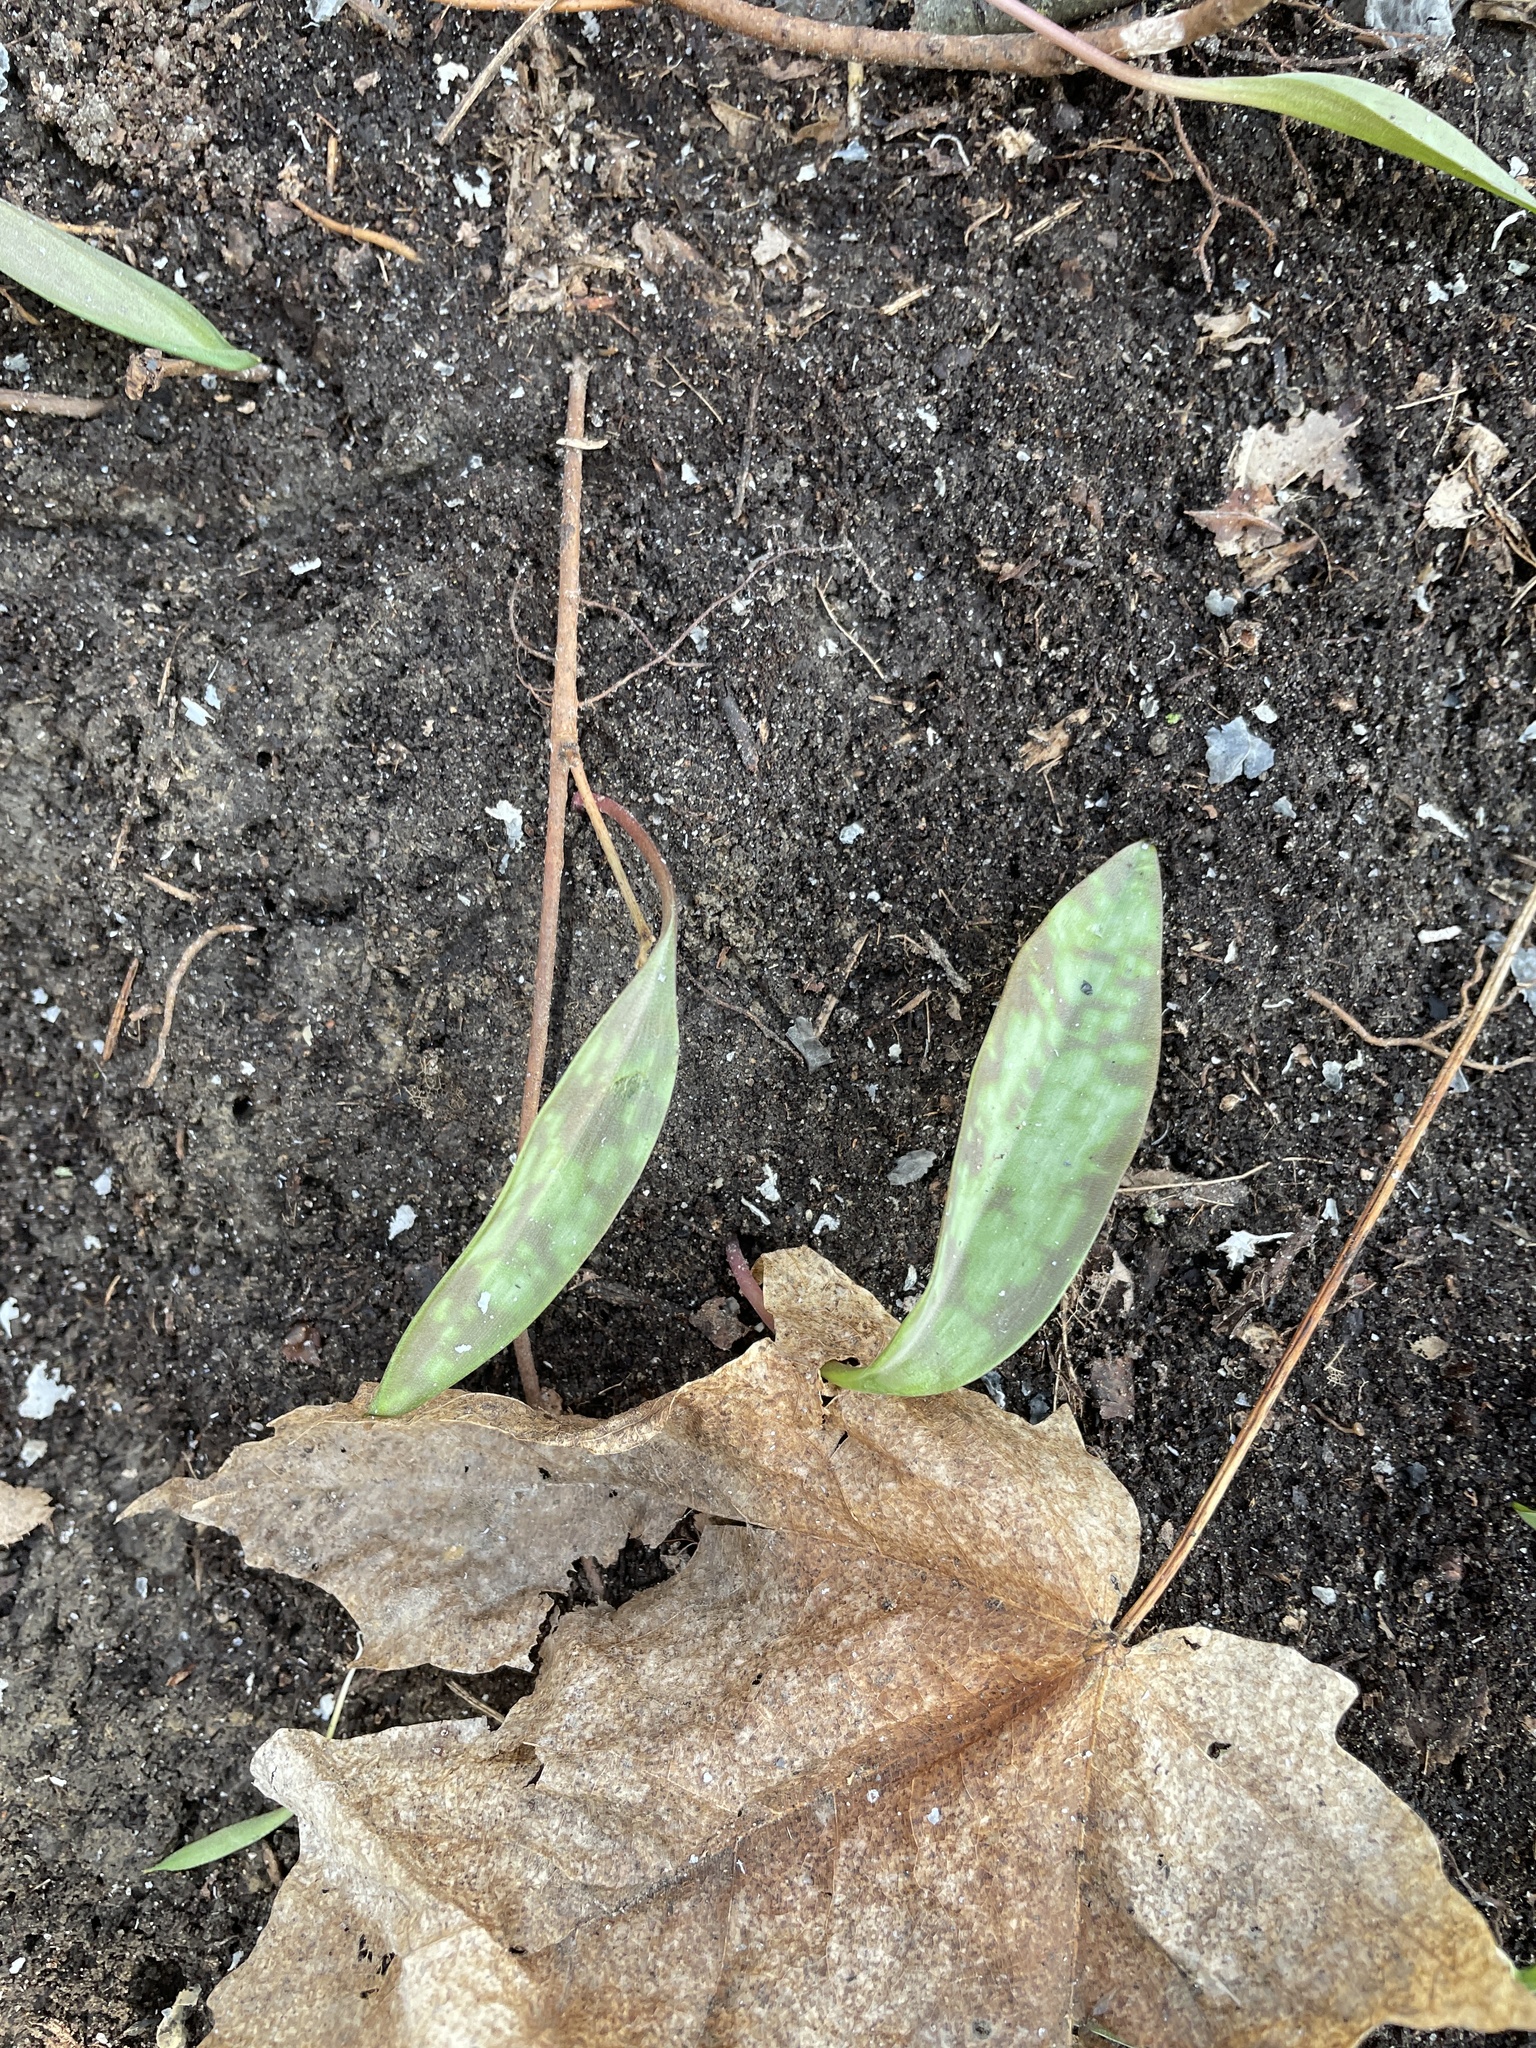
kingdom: Plantae
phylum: Tracheophyta
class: Liliopsida
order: Liliales
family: Liliaceae
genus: Erythronium
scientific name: Erythronium americanum
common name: Yellow adder's-tongue
